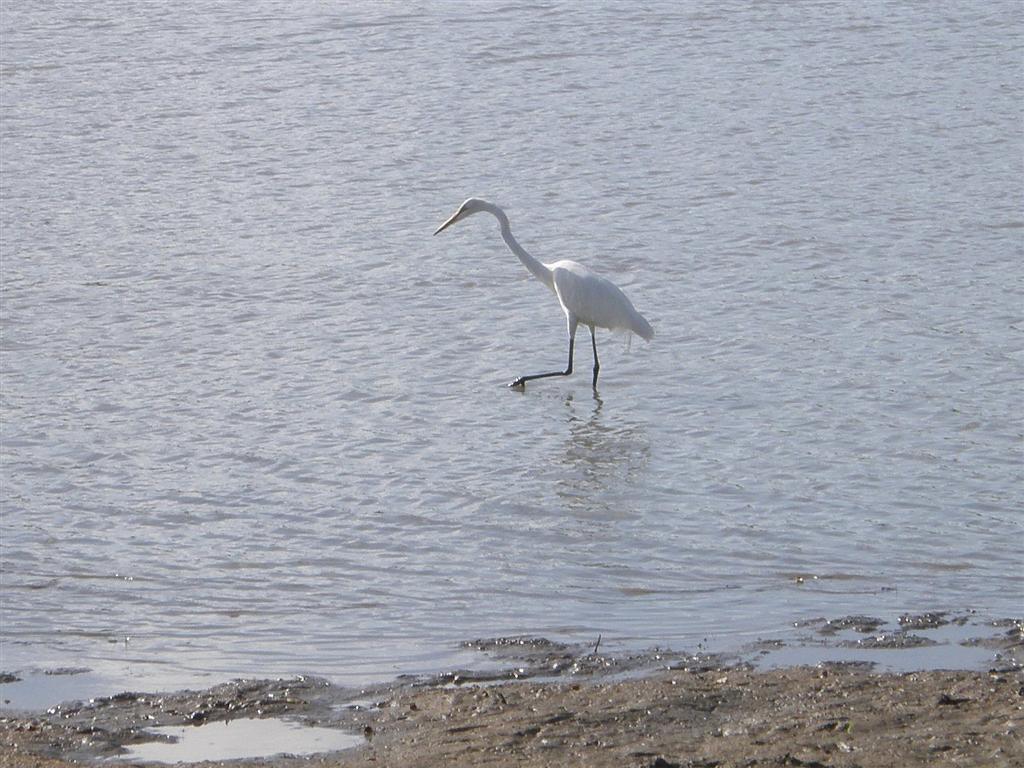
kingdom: Animalia
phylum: Chordata
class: Aves
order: Pelecaniformes
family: Ardeidae
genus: Ardea
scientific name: Ardea alba
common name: Great egret
